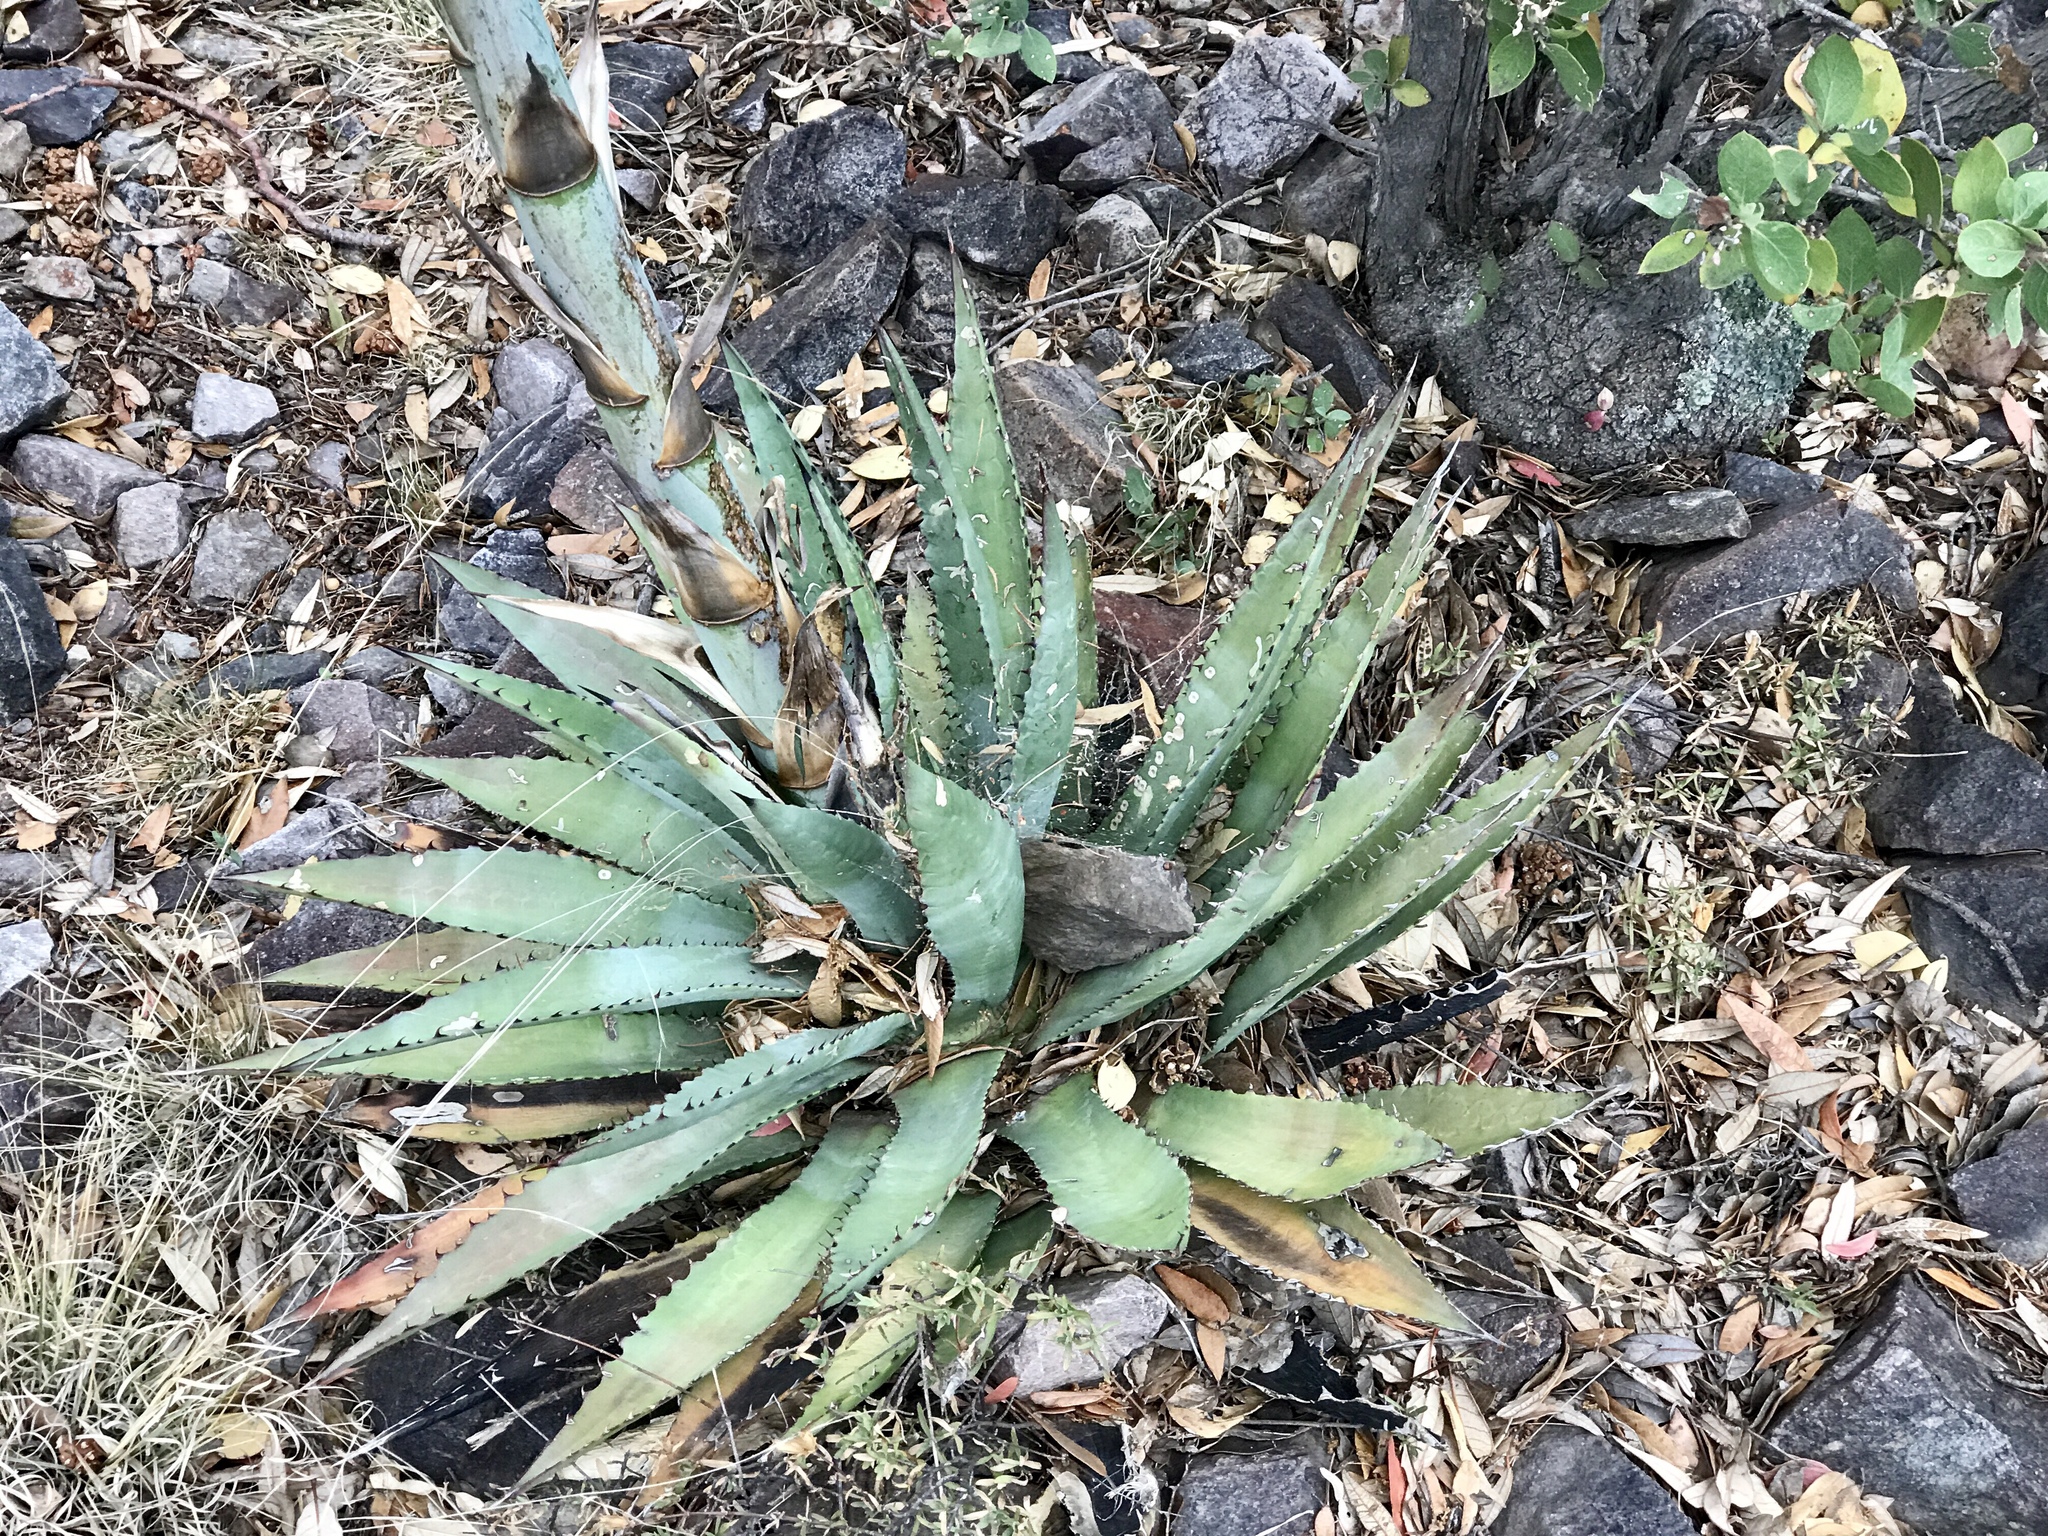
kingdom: Plantae
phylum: Tracheophyta
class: Liliopsida
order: Asparagales
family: Asparagaceae
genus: Agave
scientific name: Agave palmeri
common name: Palmer agave
